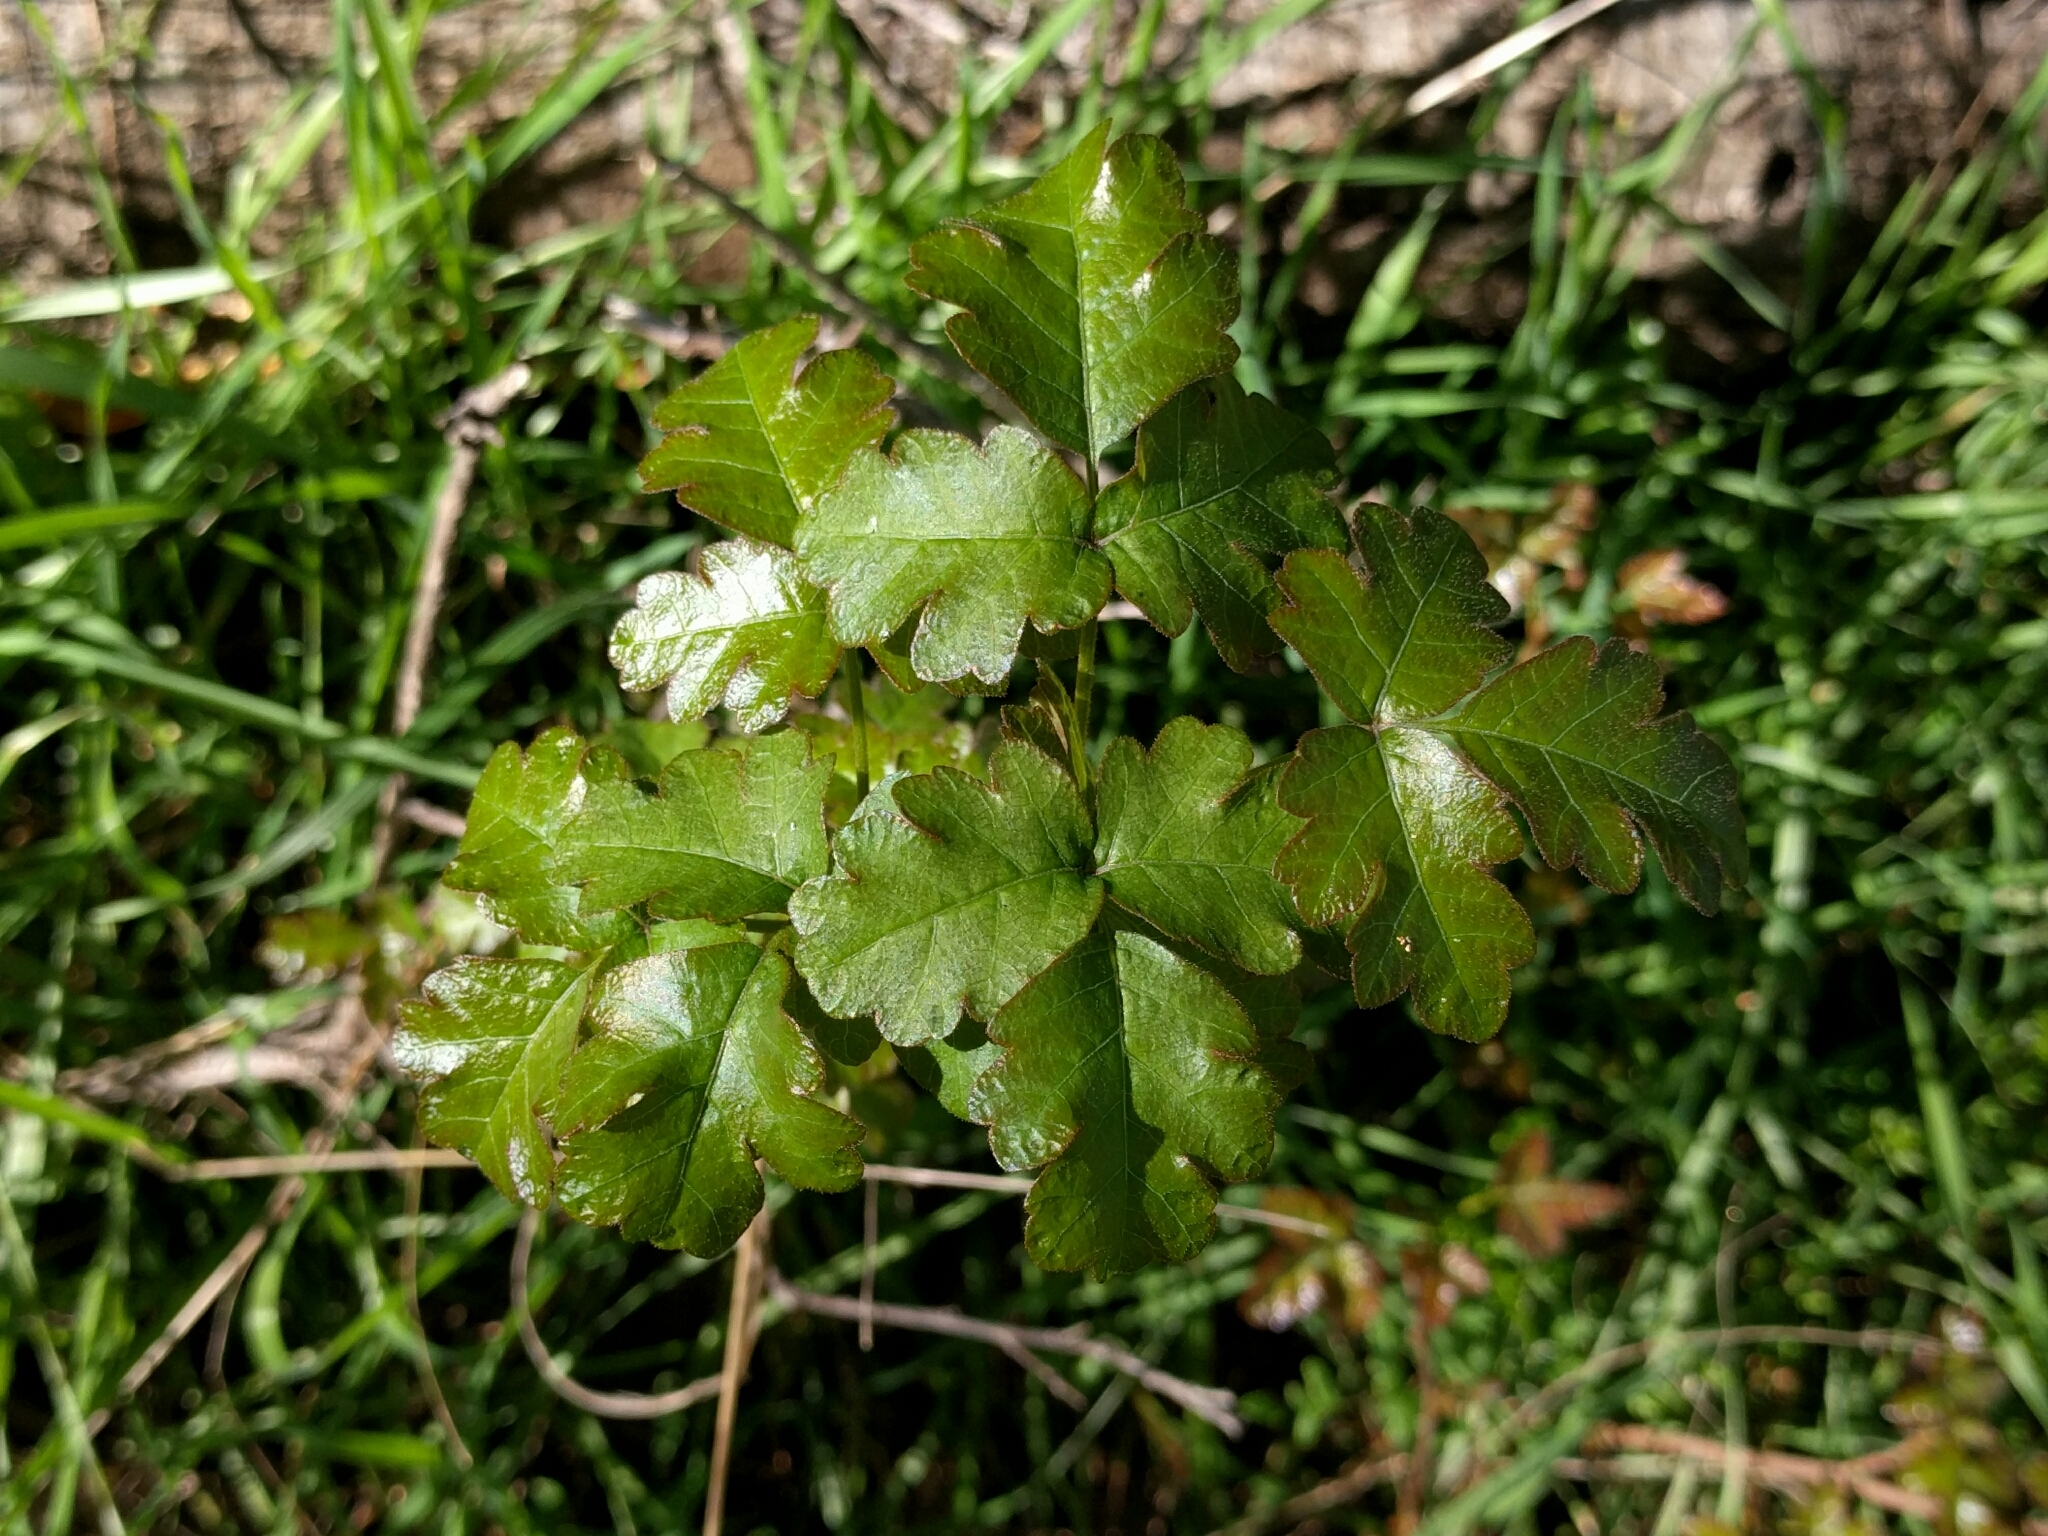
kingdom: Plantae
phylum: Tracheophyta
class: Magnoliopsida
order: Sapindales
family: Anacardiaceae
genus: Toxicodendron
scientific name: Toxicodendron diversilobum
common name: Pacific poison-oak
